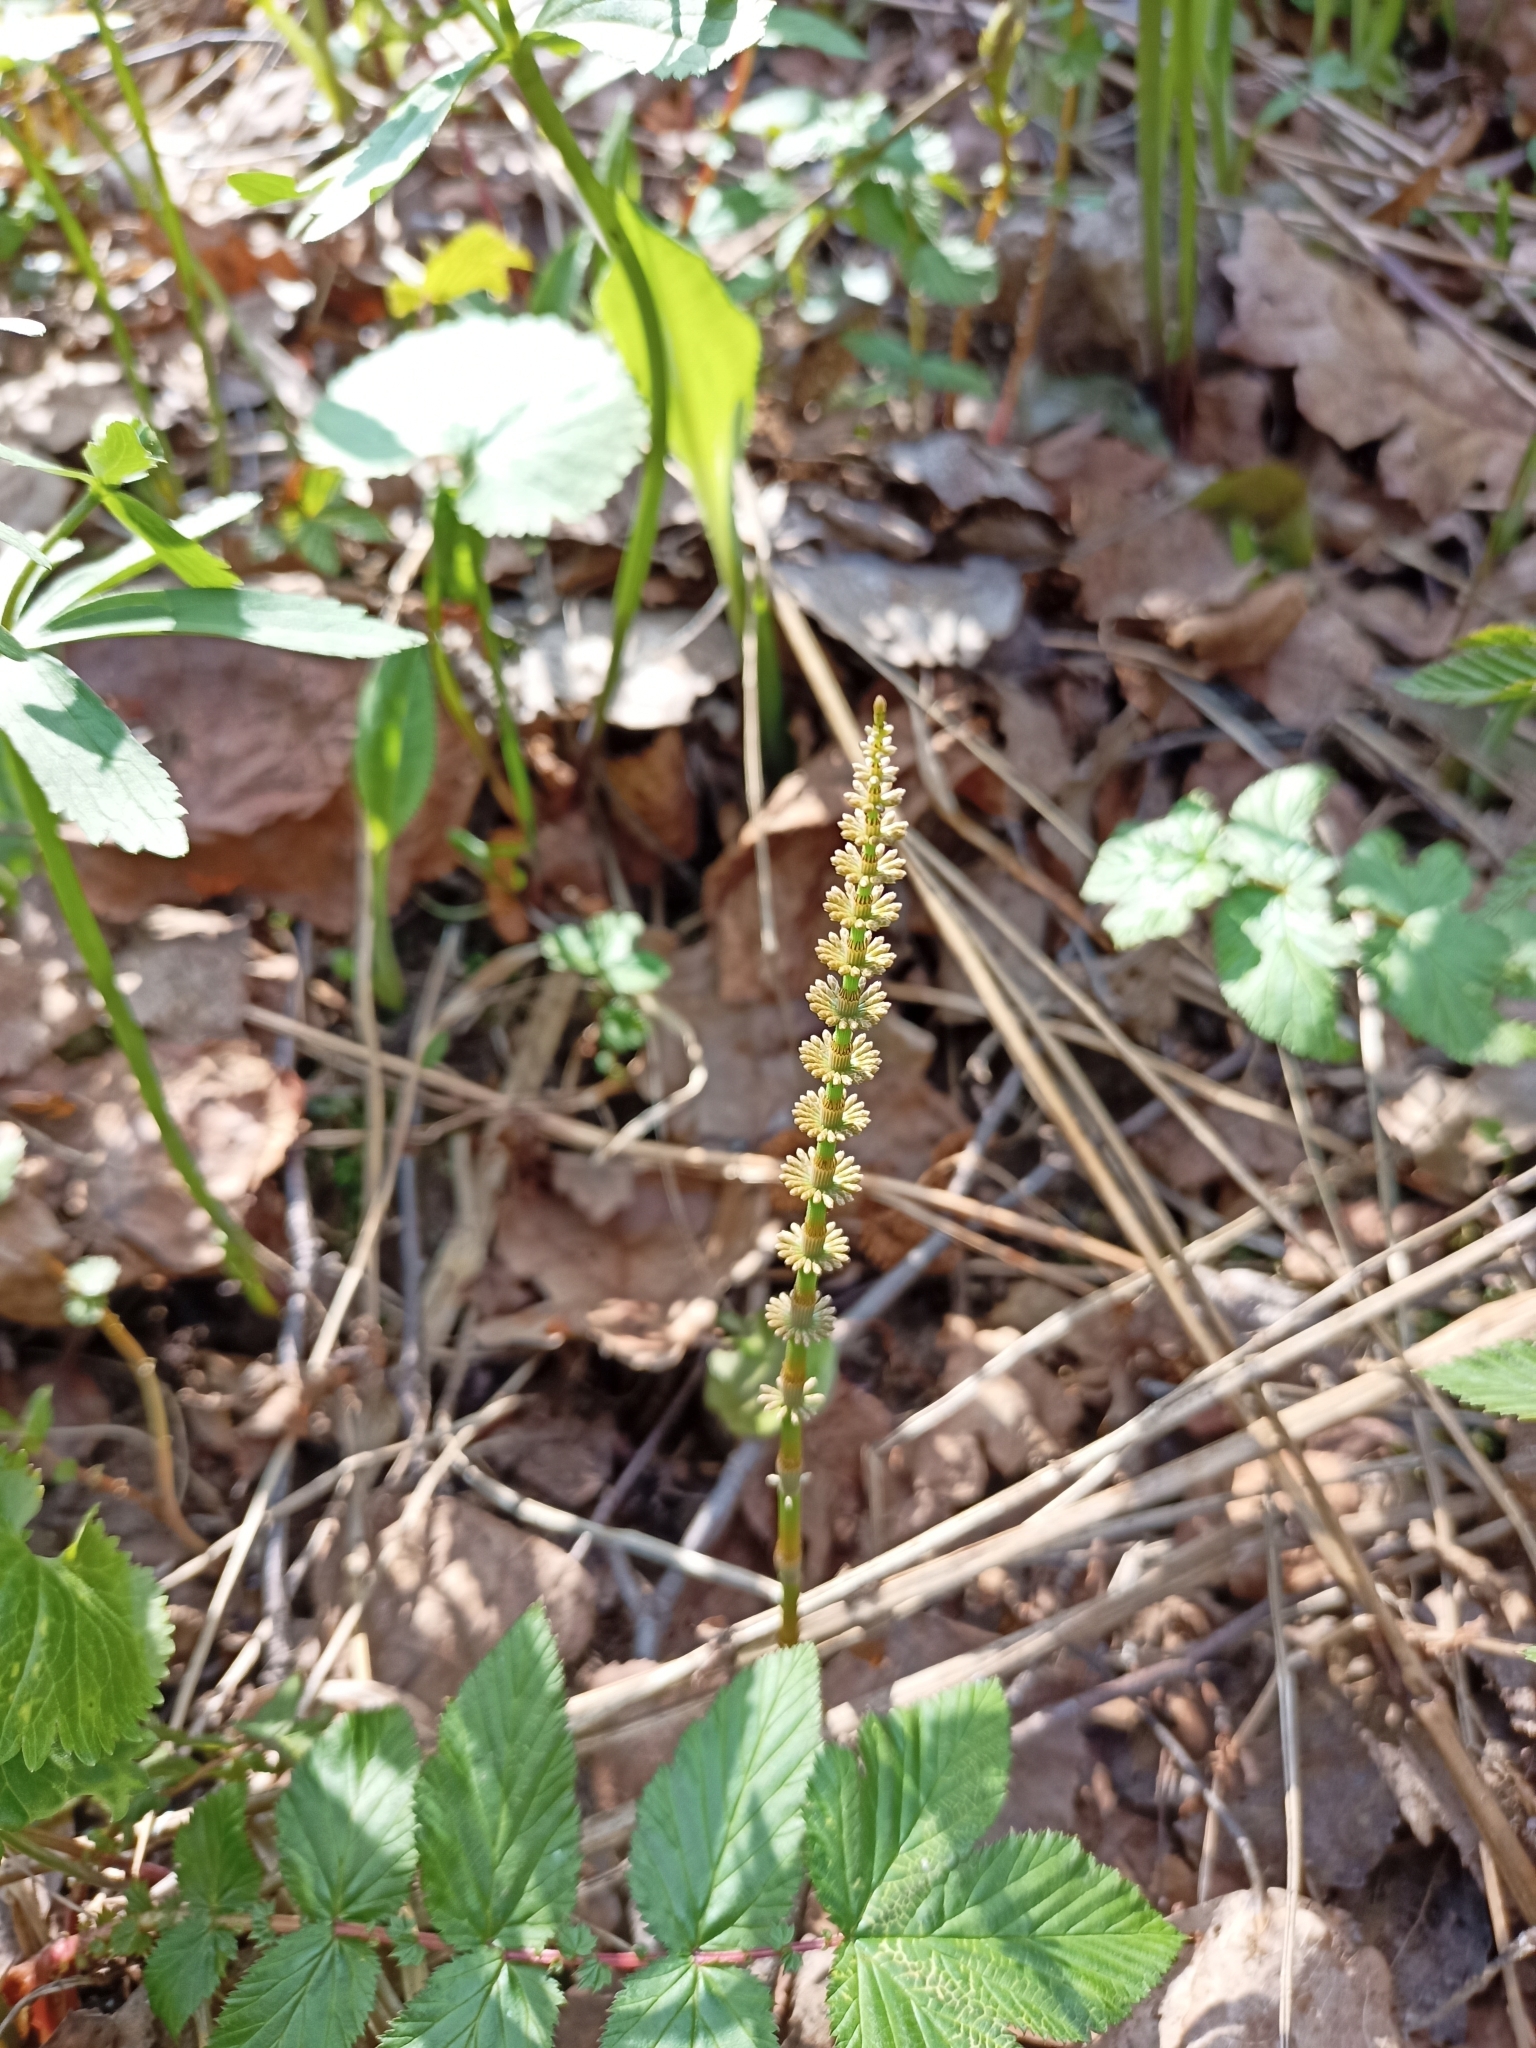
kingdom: Plantae
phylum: Tracheophyta
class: Polypodiopsida
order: Equisetales
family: Equisetaceae
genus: Equisetum
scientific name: Equisetum pratense
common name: Meadow horsetail
